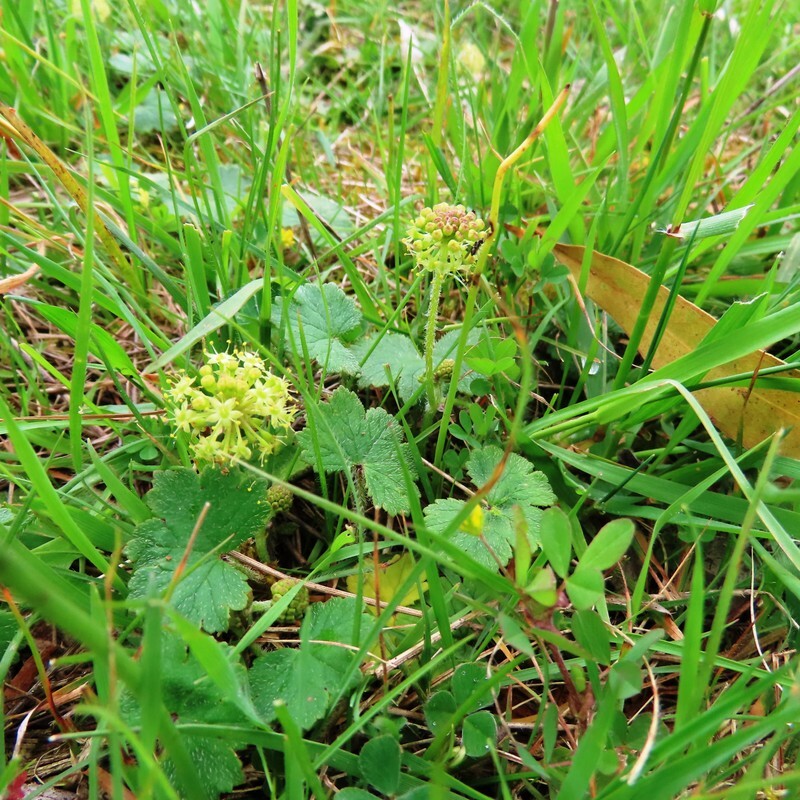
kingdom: Plantae
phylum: Tracheophyta
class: Magnoliopsida
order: Apiales
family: Araliaceae
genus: Hydrocotyle
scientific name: Hydrocotyle laxiflora
